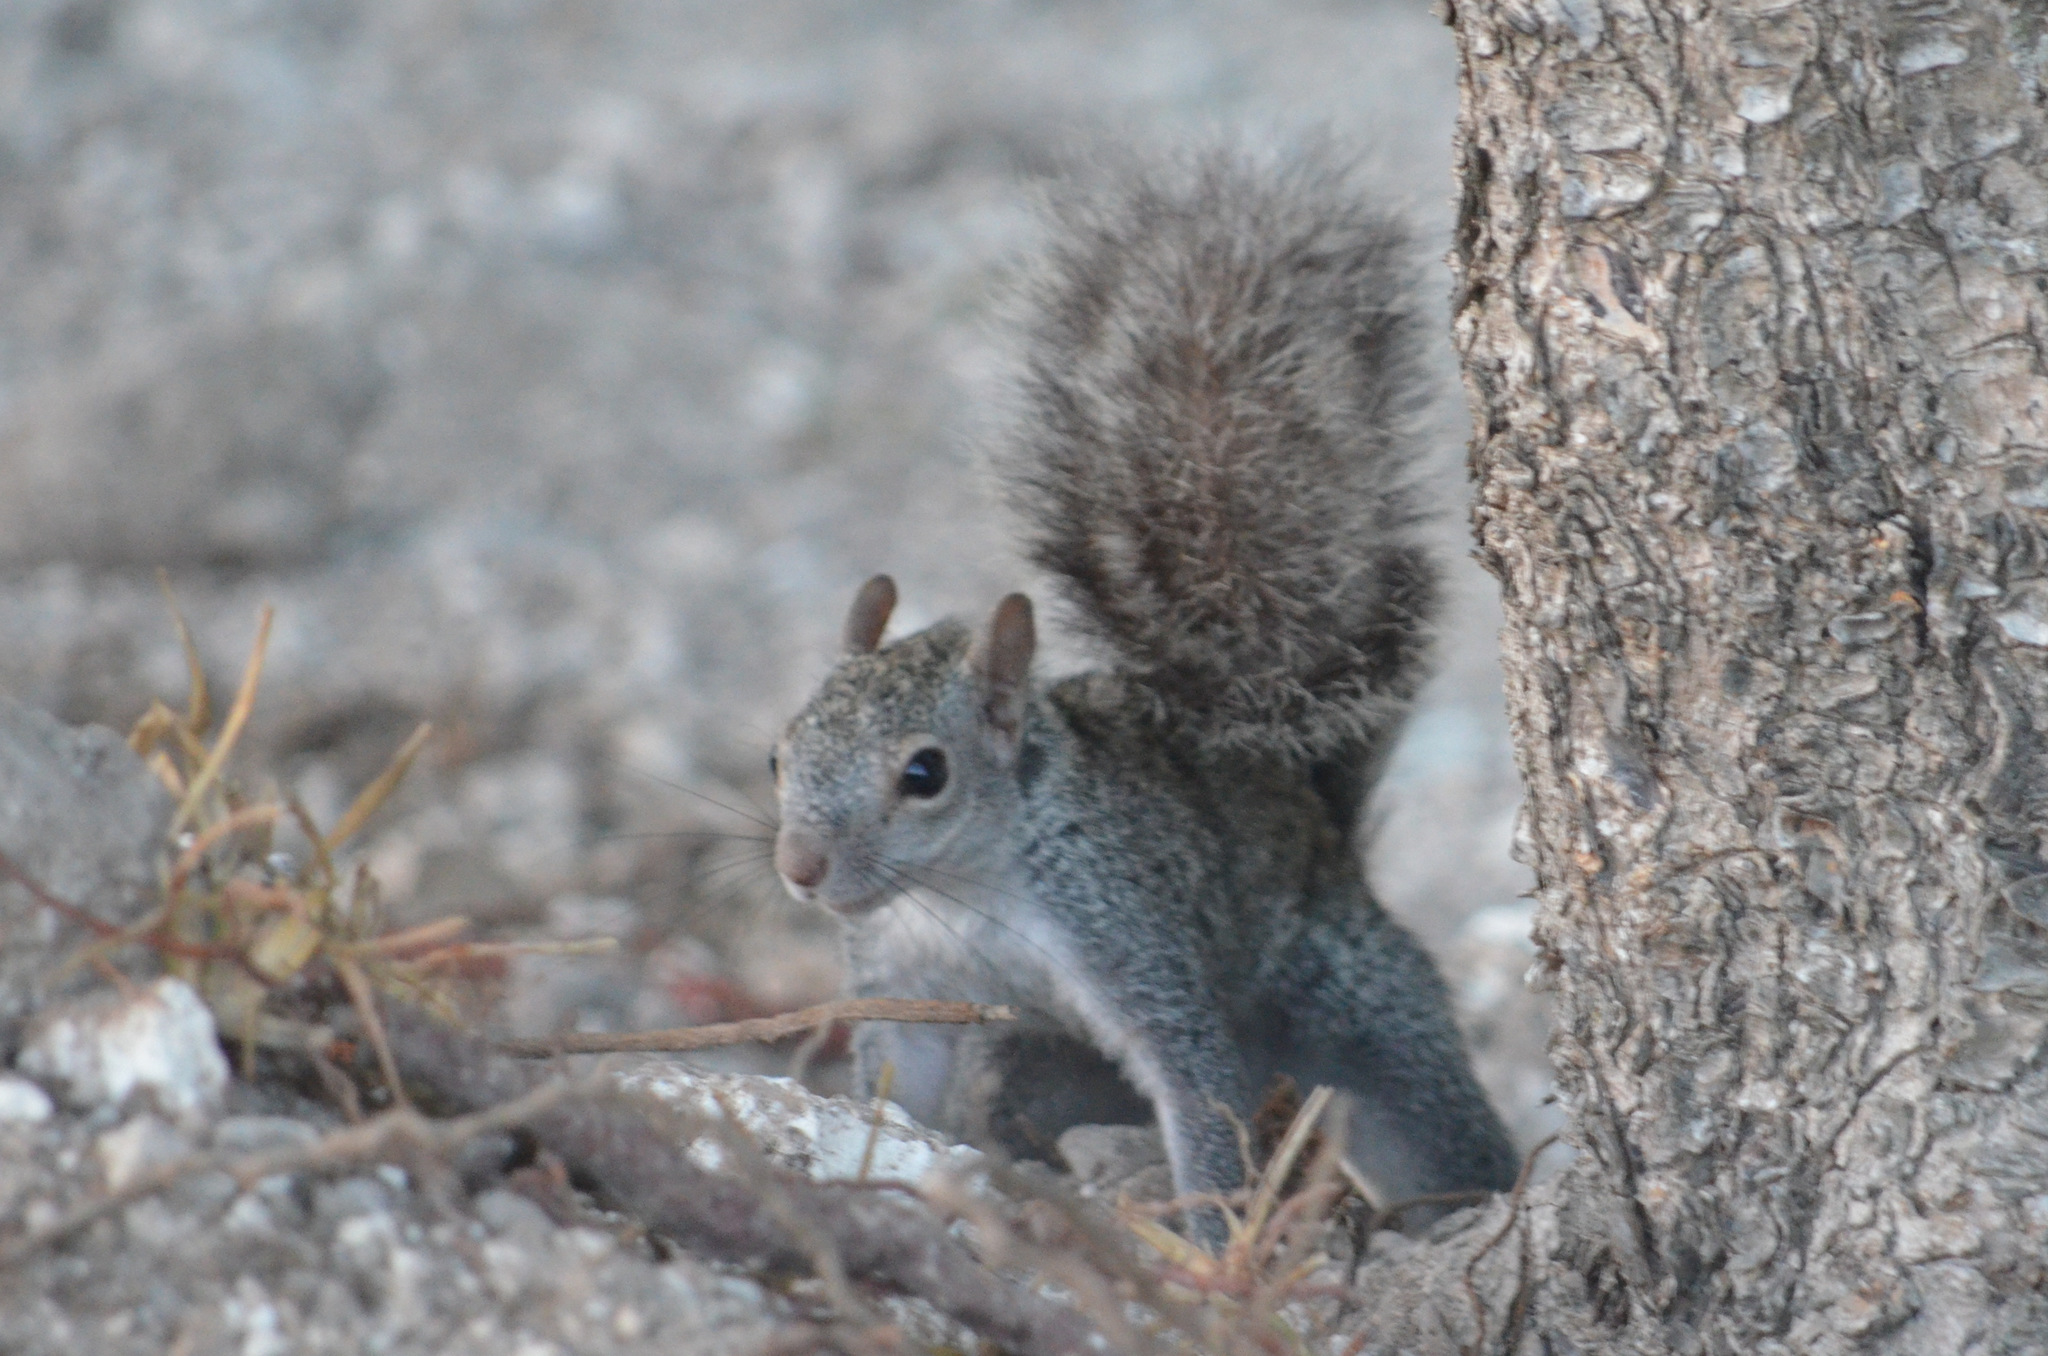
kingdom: Animalia
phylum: Chordata
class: Mammalia
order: Rodentia
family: Sciuridae
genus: Sciurus
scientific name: Sciurus yucatanensis
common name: Yucatan squirrel
